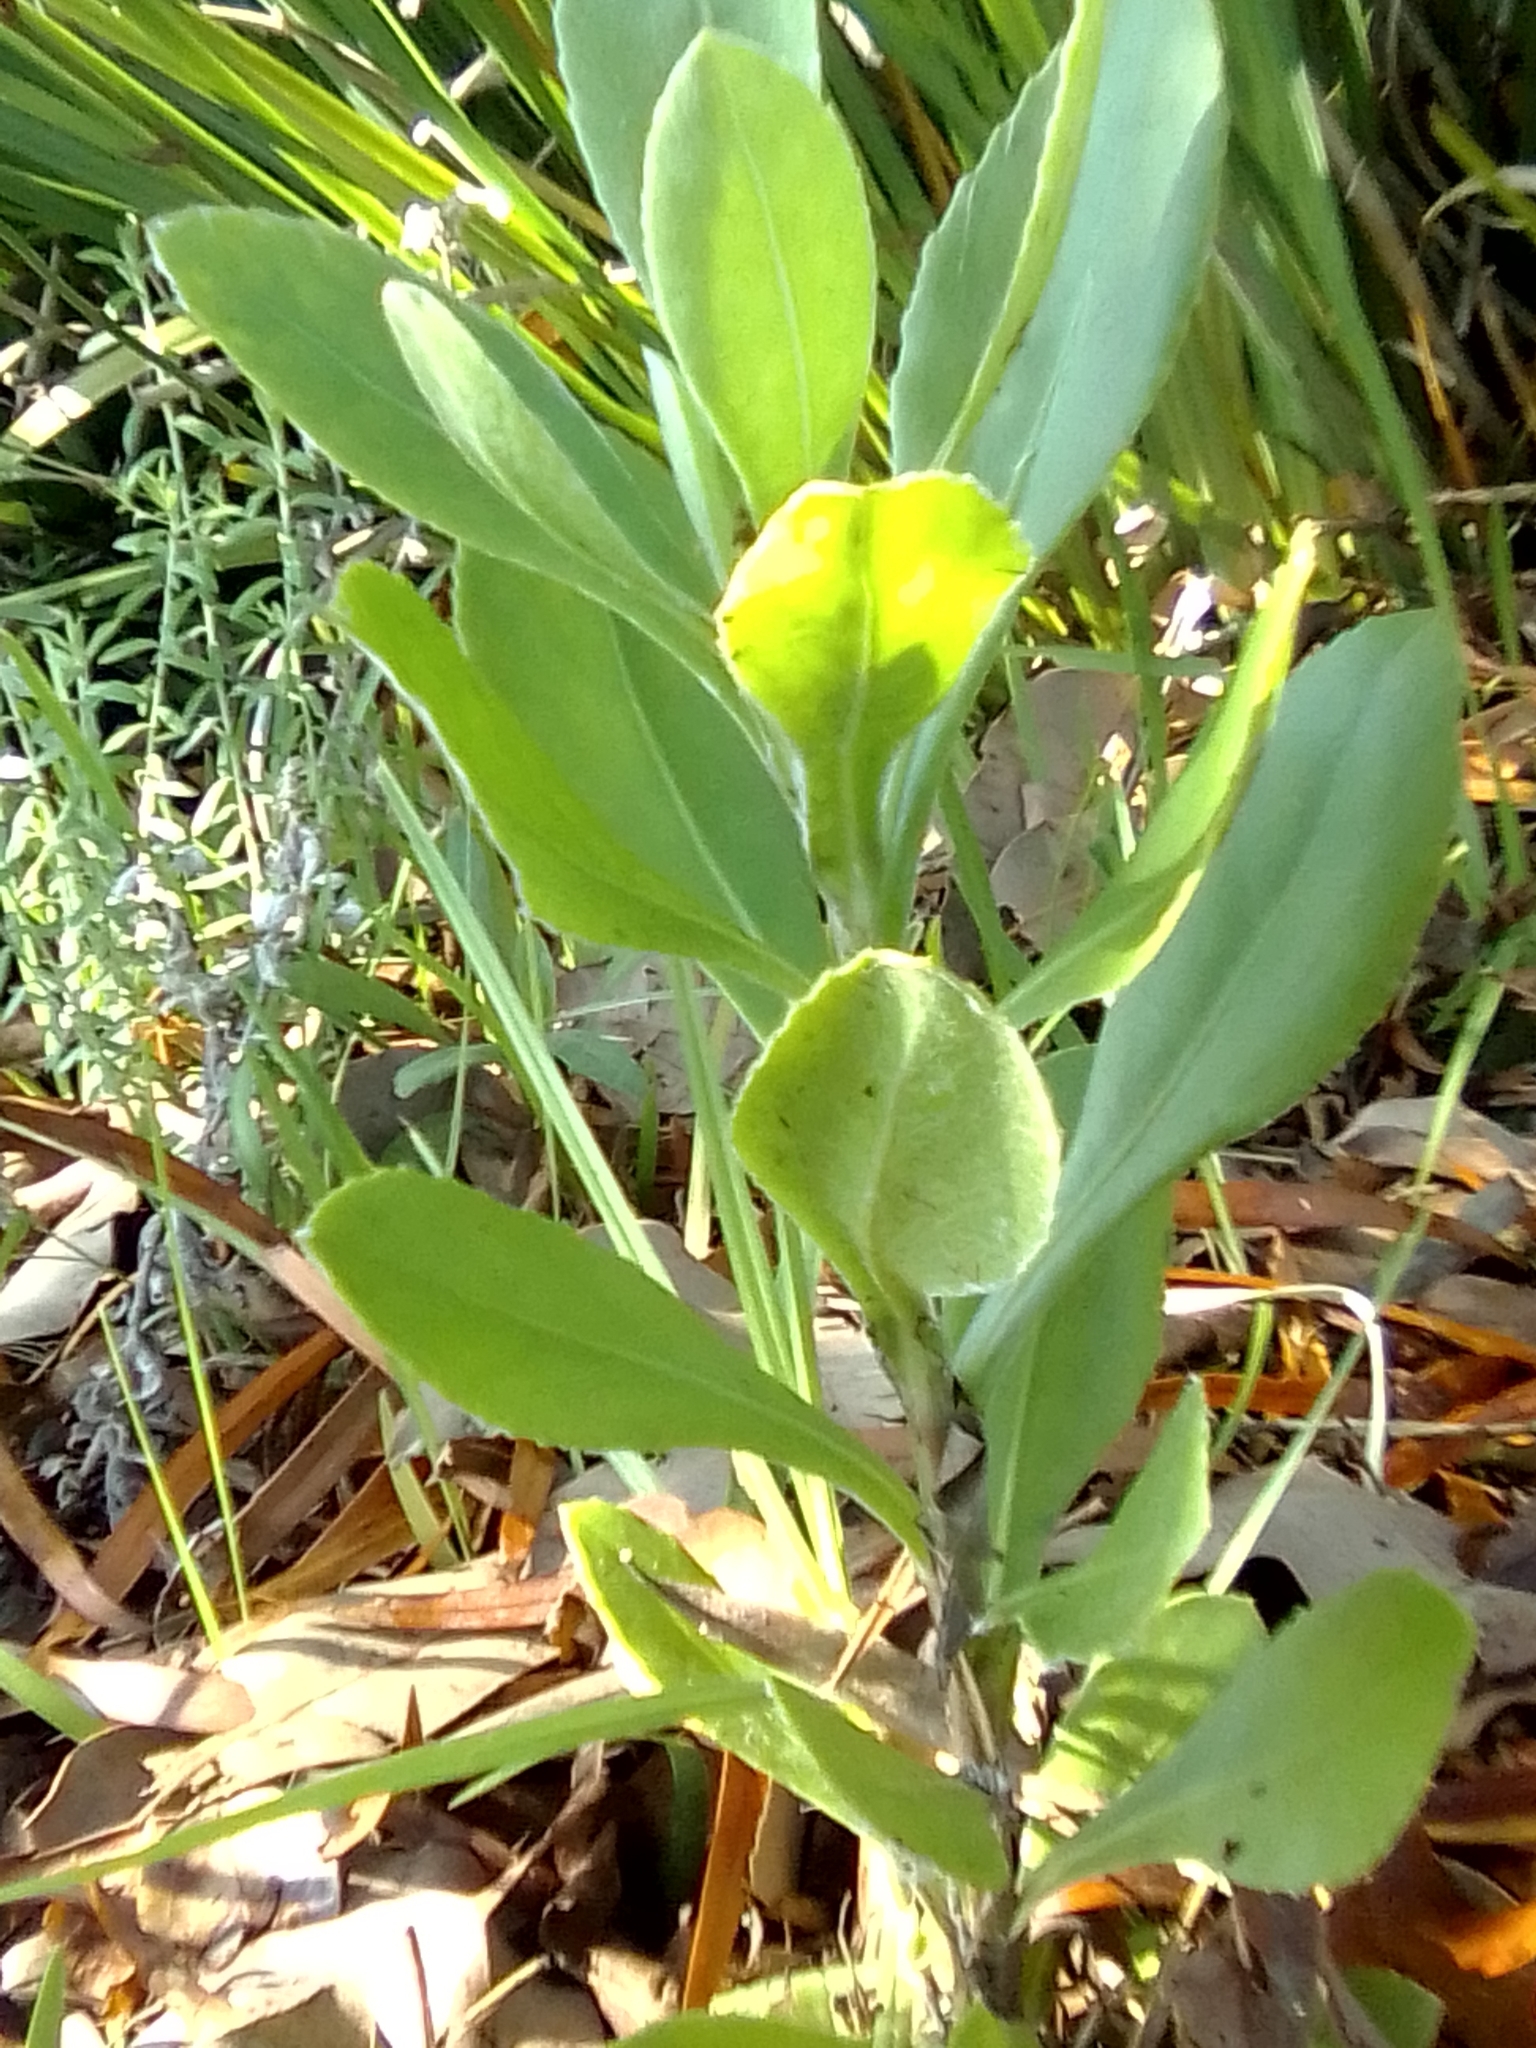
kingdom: Plantae
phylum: Tracheophyta
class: Magnoliopsida
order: Asterales
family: Asteraceae
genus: Osteospermum
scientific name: Osteospermum moniliferum
